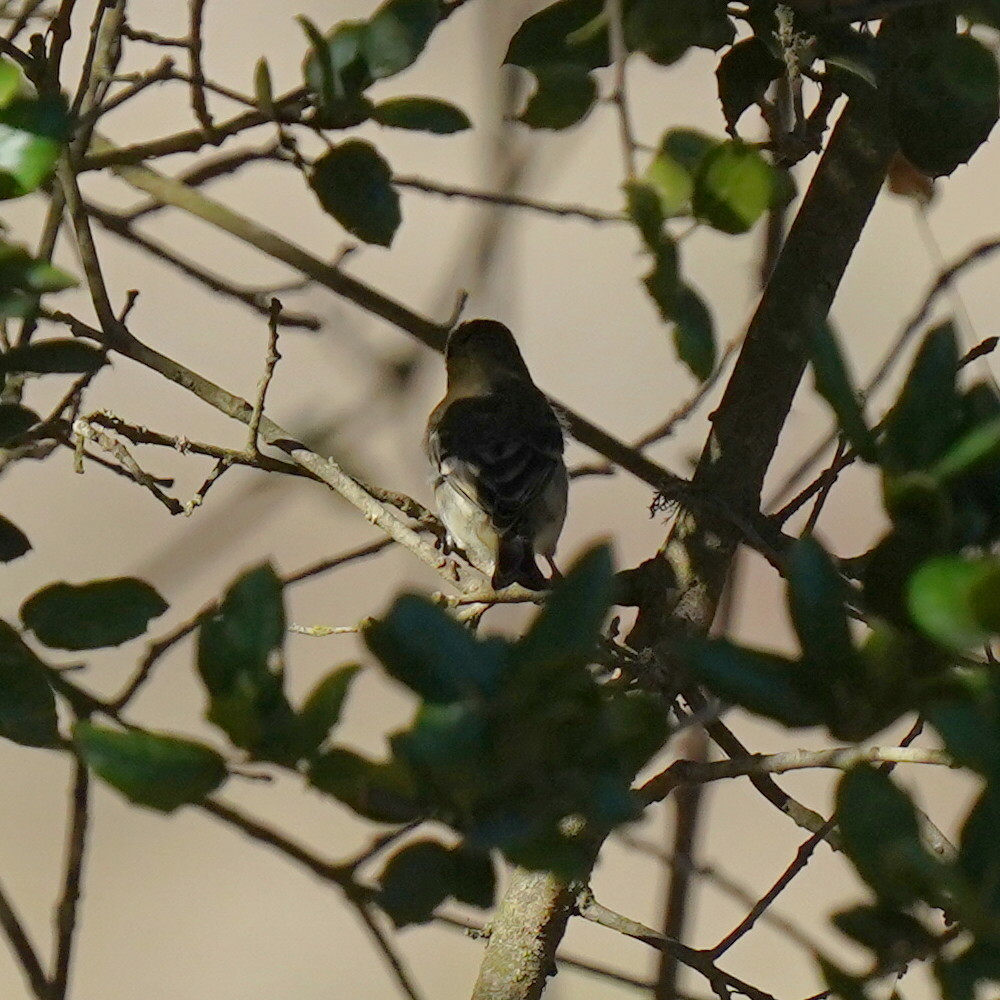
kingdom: Animalia
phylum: Chordata
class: Aves
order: Passeriformes
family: Fringillidae
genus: Spinus
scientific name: Spinus psaltria
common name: Lesser goldfinch
